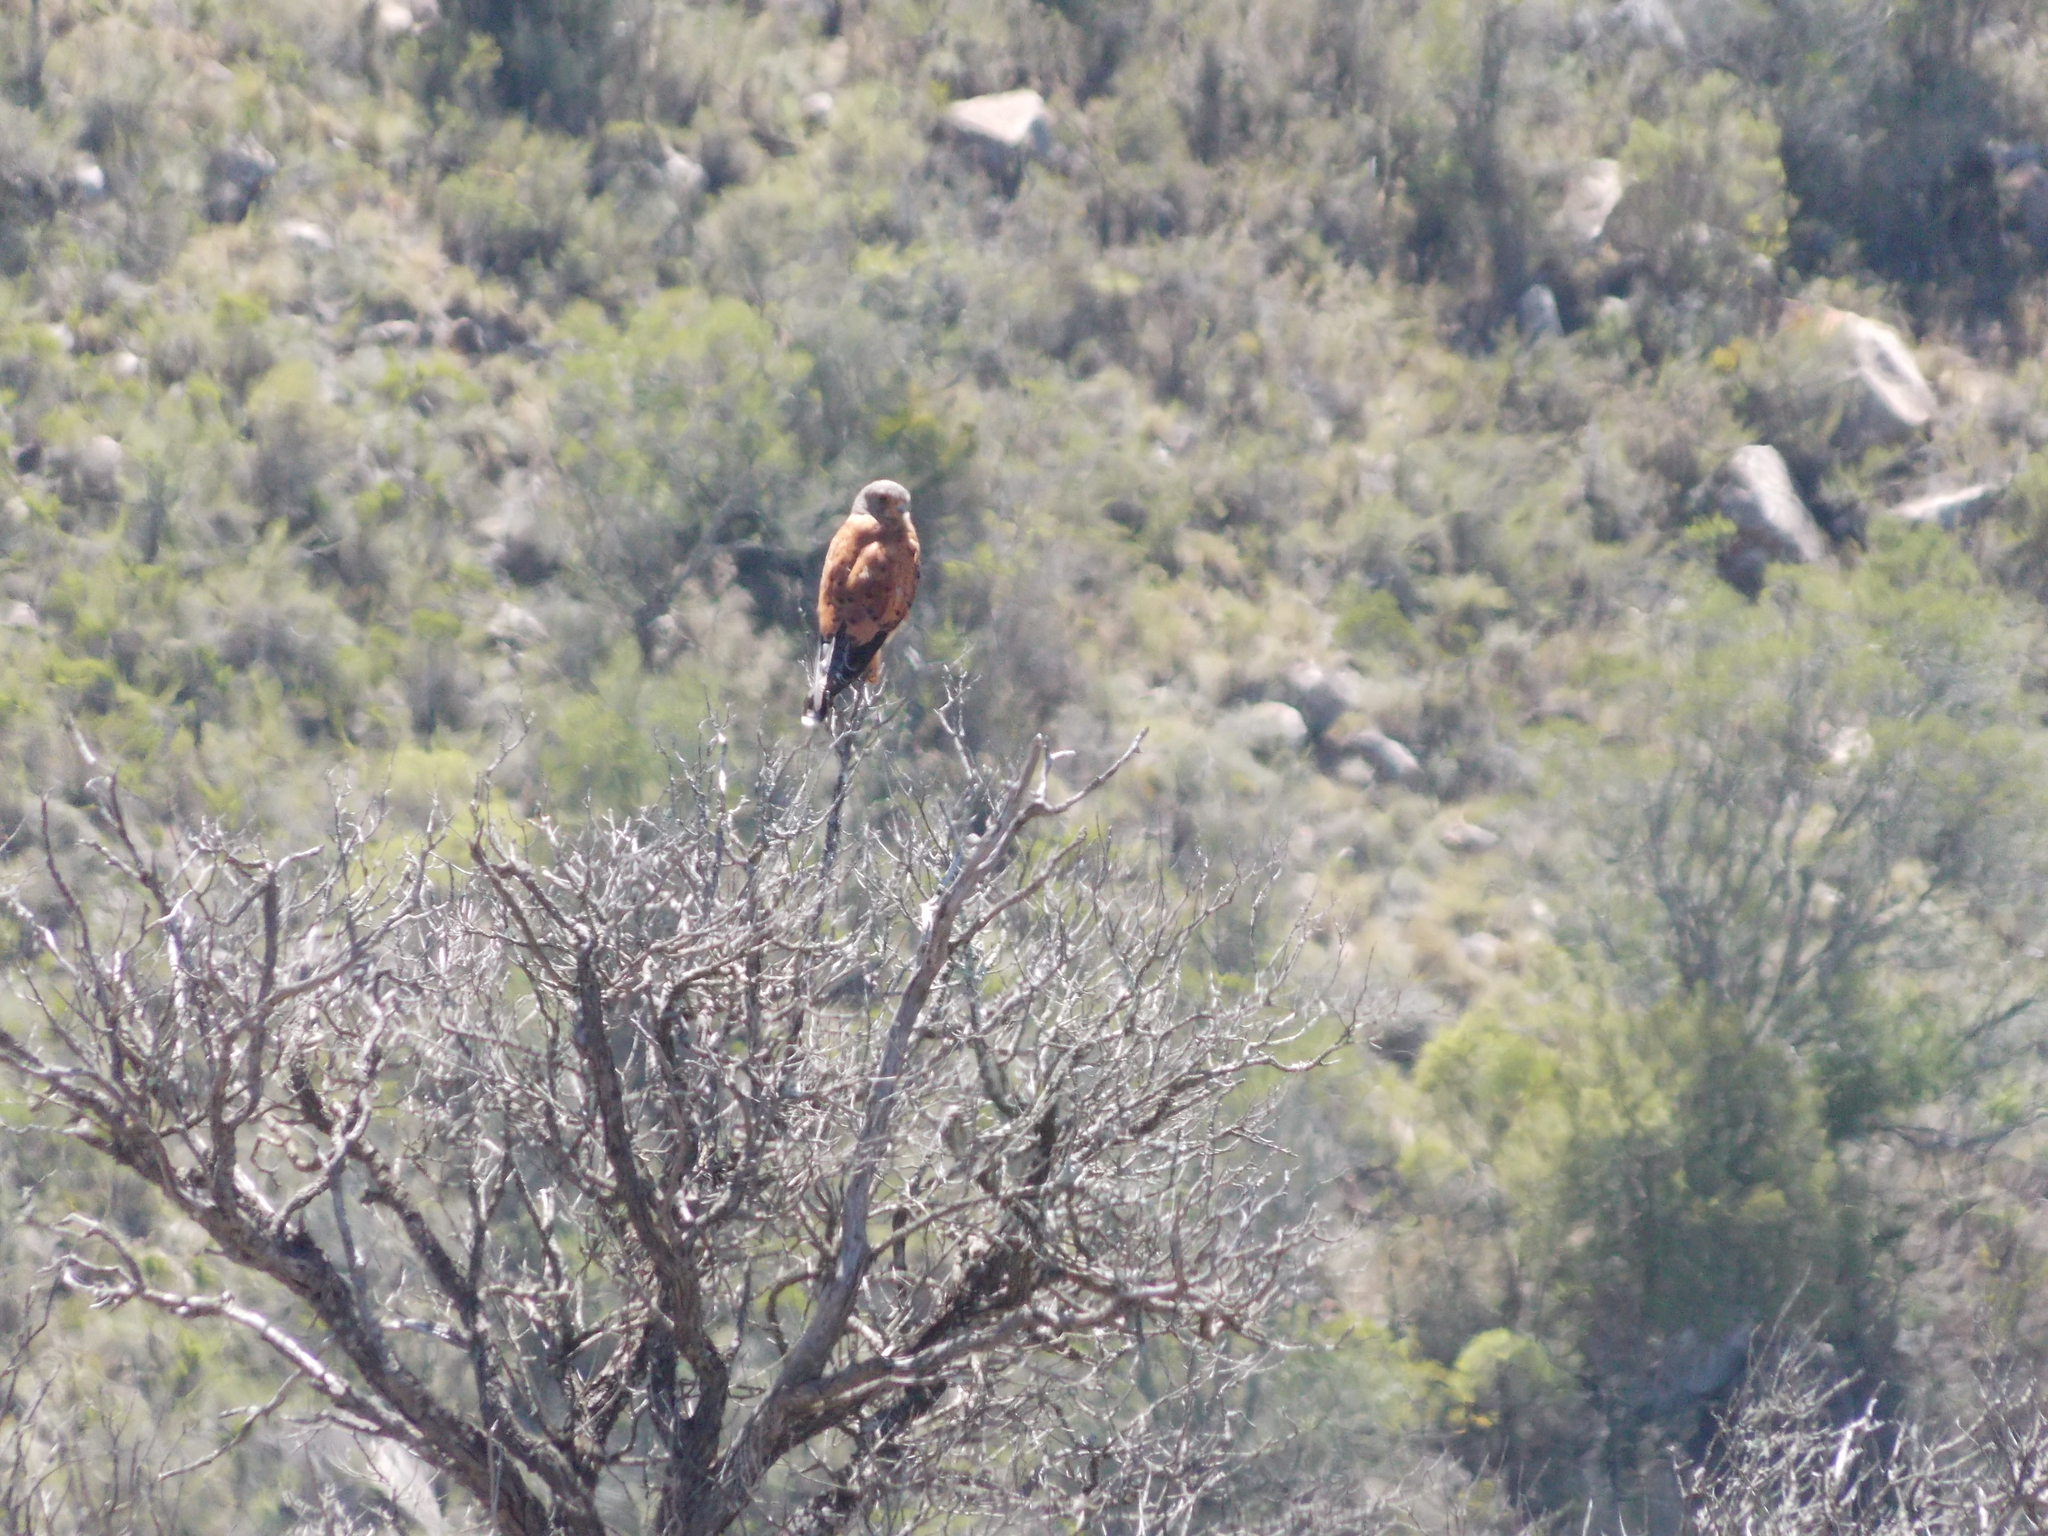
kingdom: Animalia
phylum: Chordata
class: Aves
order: Falconiformes
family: Falconidae
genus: Falco
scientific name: Falco rupicolus
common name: Rock kestrel
